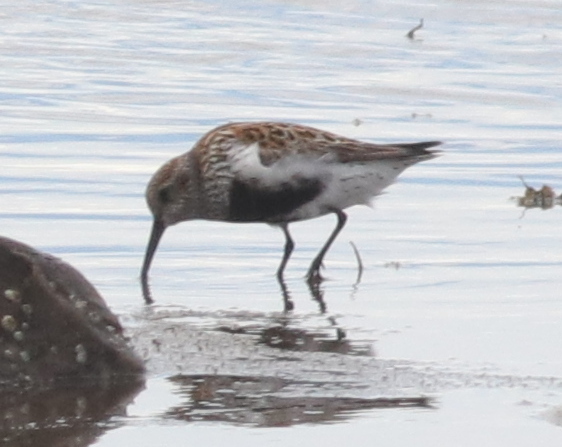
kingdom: Animalia
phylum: Chordata
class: Aves
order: Charadriiformes
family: Scolopacidae
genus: Calidris
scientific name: Calidris alpina
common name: Dunlin
